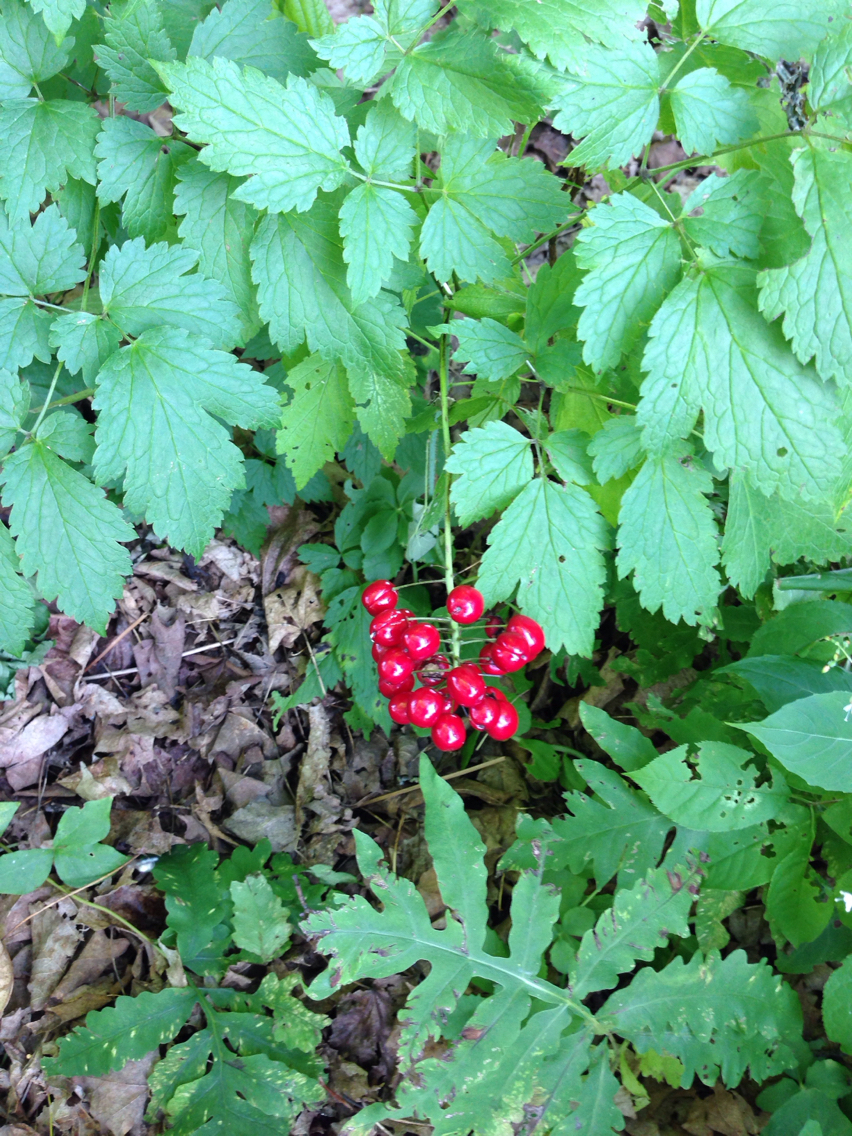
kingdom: Plantae
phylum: Tracheophyta
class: Magnoliopsida
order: Ranunculales
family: Ranunculaceae
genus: Actaea
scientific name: Actaea rubra
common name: Red baneberry
